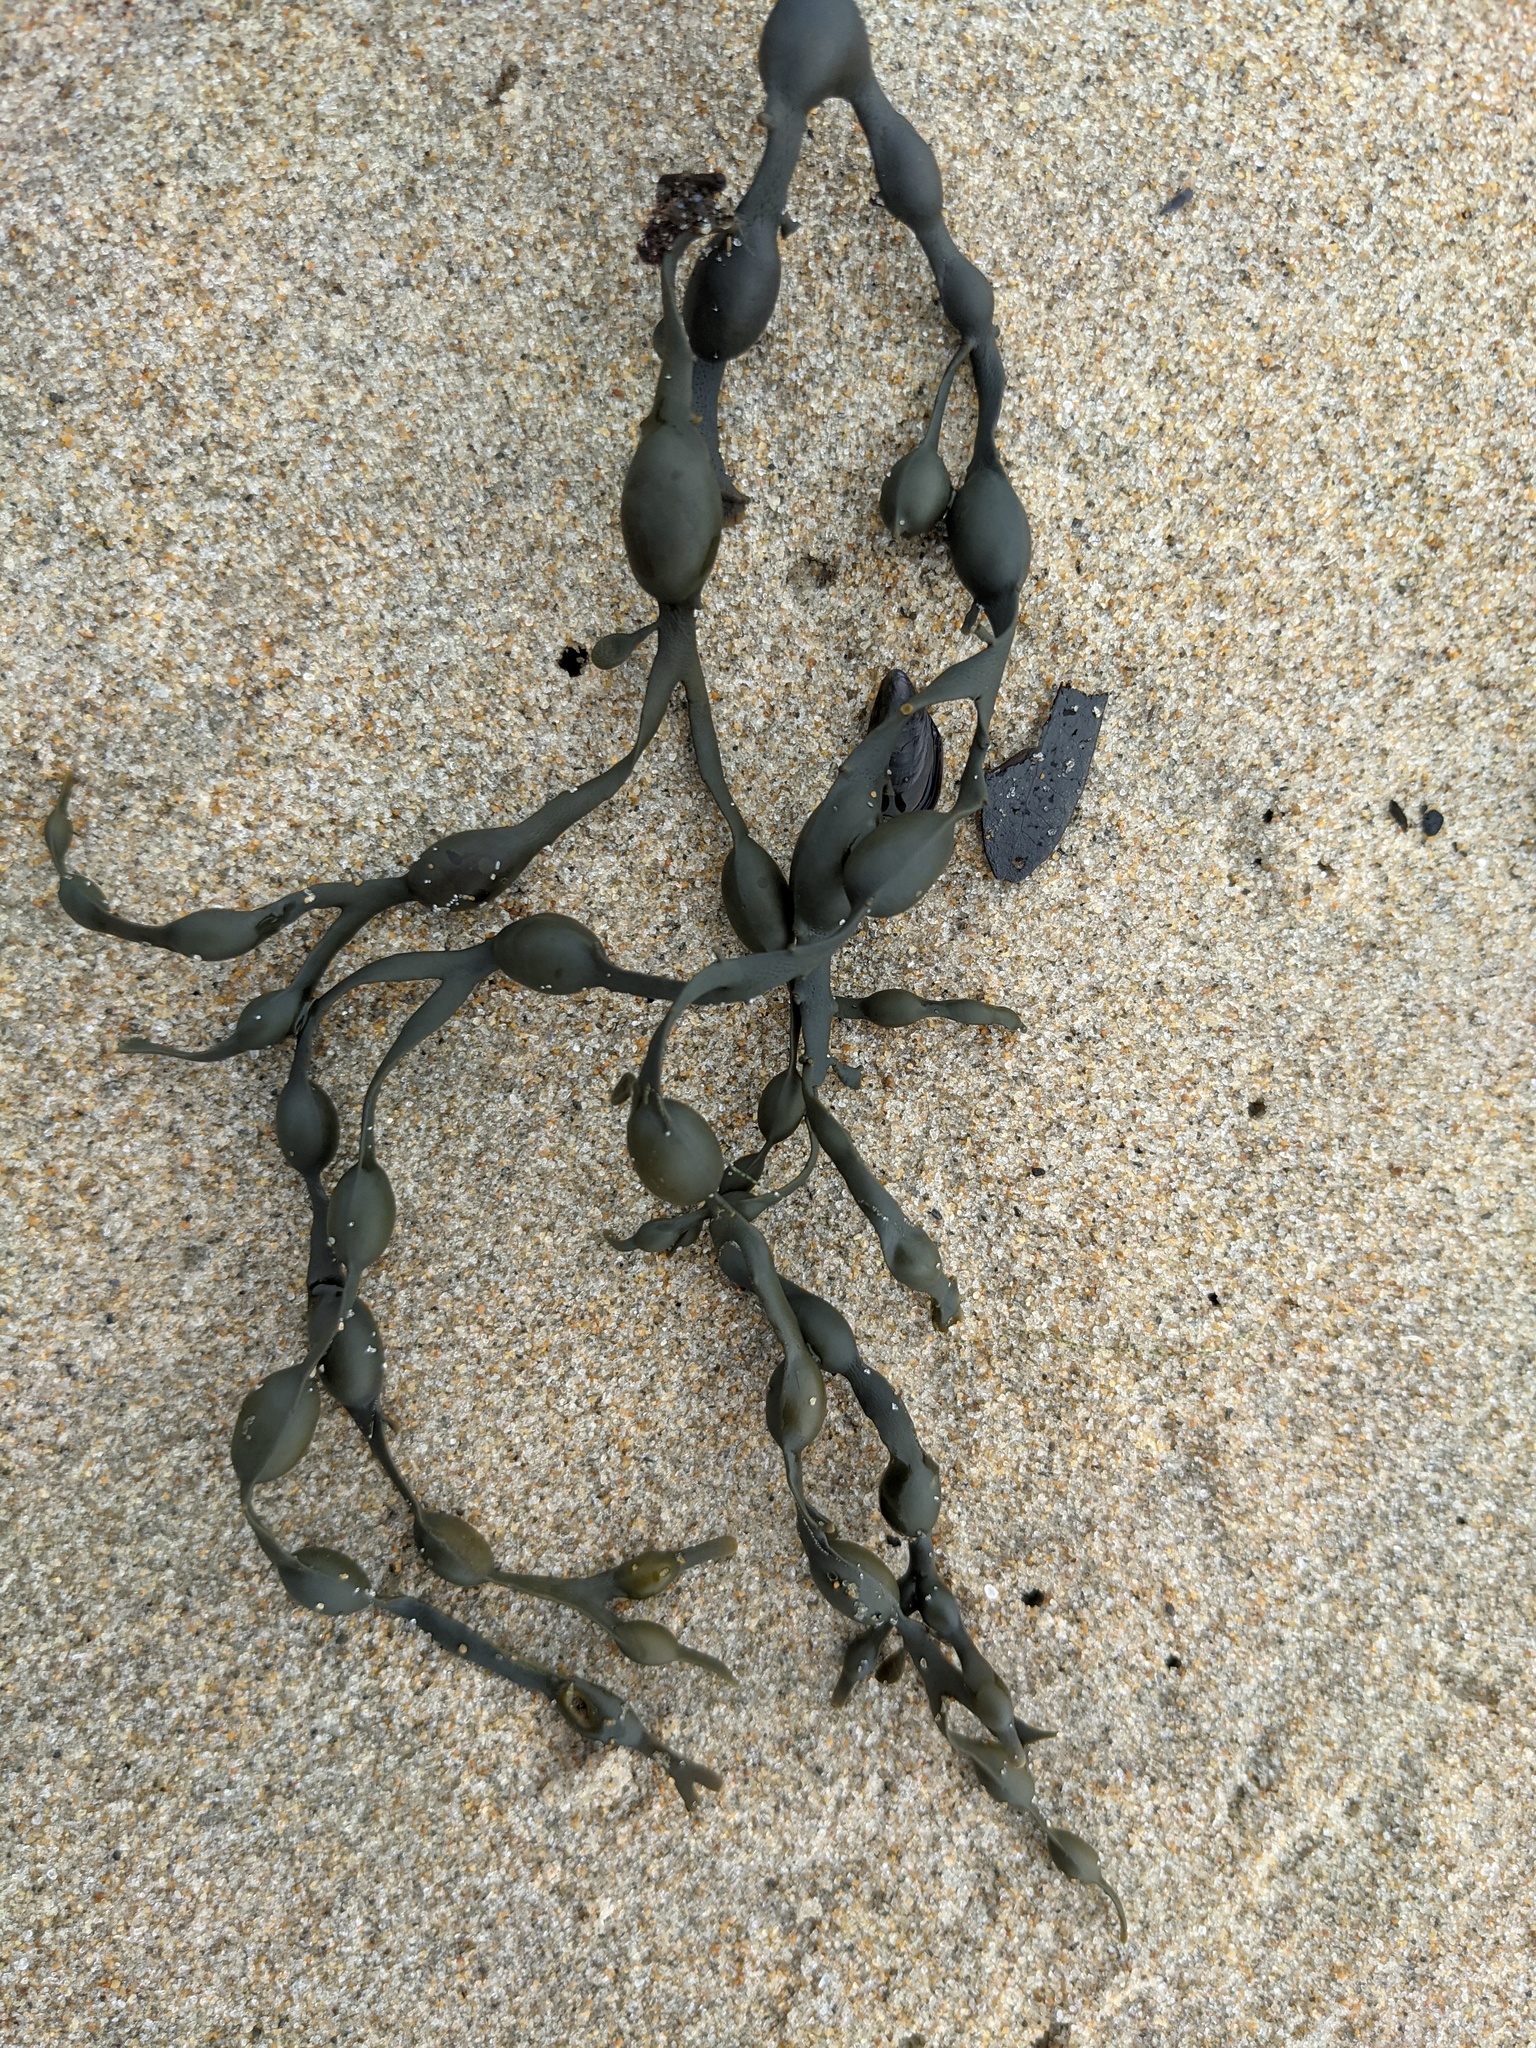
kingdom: Chromista
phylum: Ochrophyta
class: Phaeophyceae
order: Fucales
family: Fucaceae
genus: Ascophyllum
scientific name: Ascophyllum nodosum
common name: Knotted wrack
